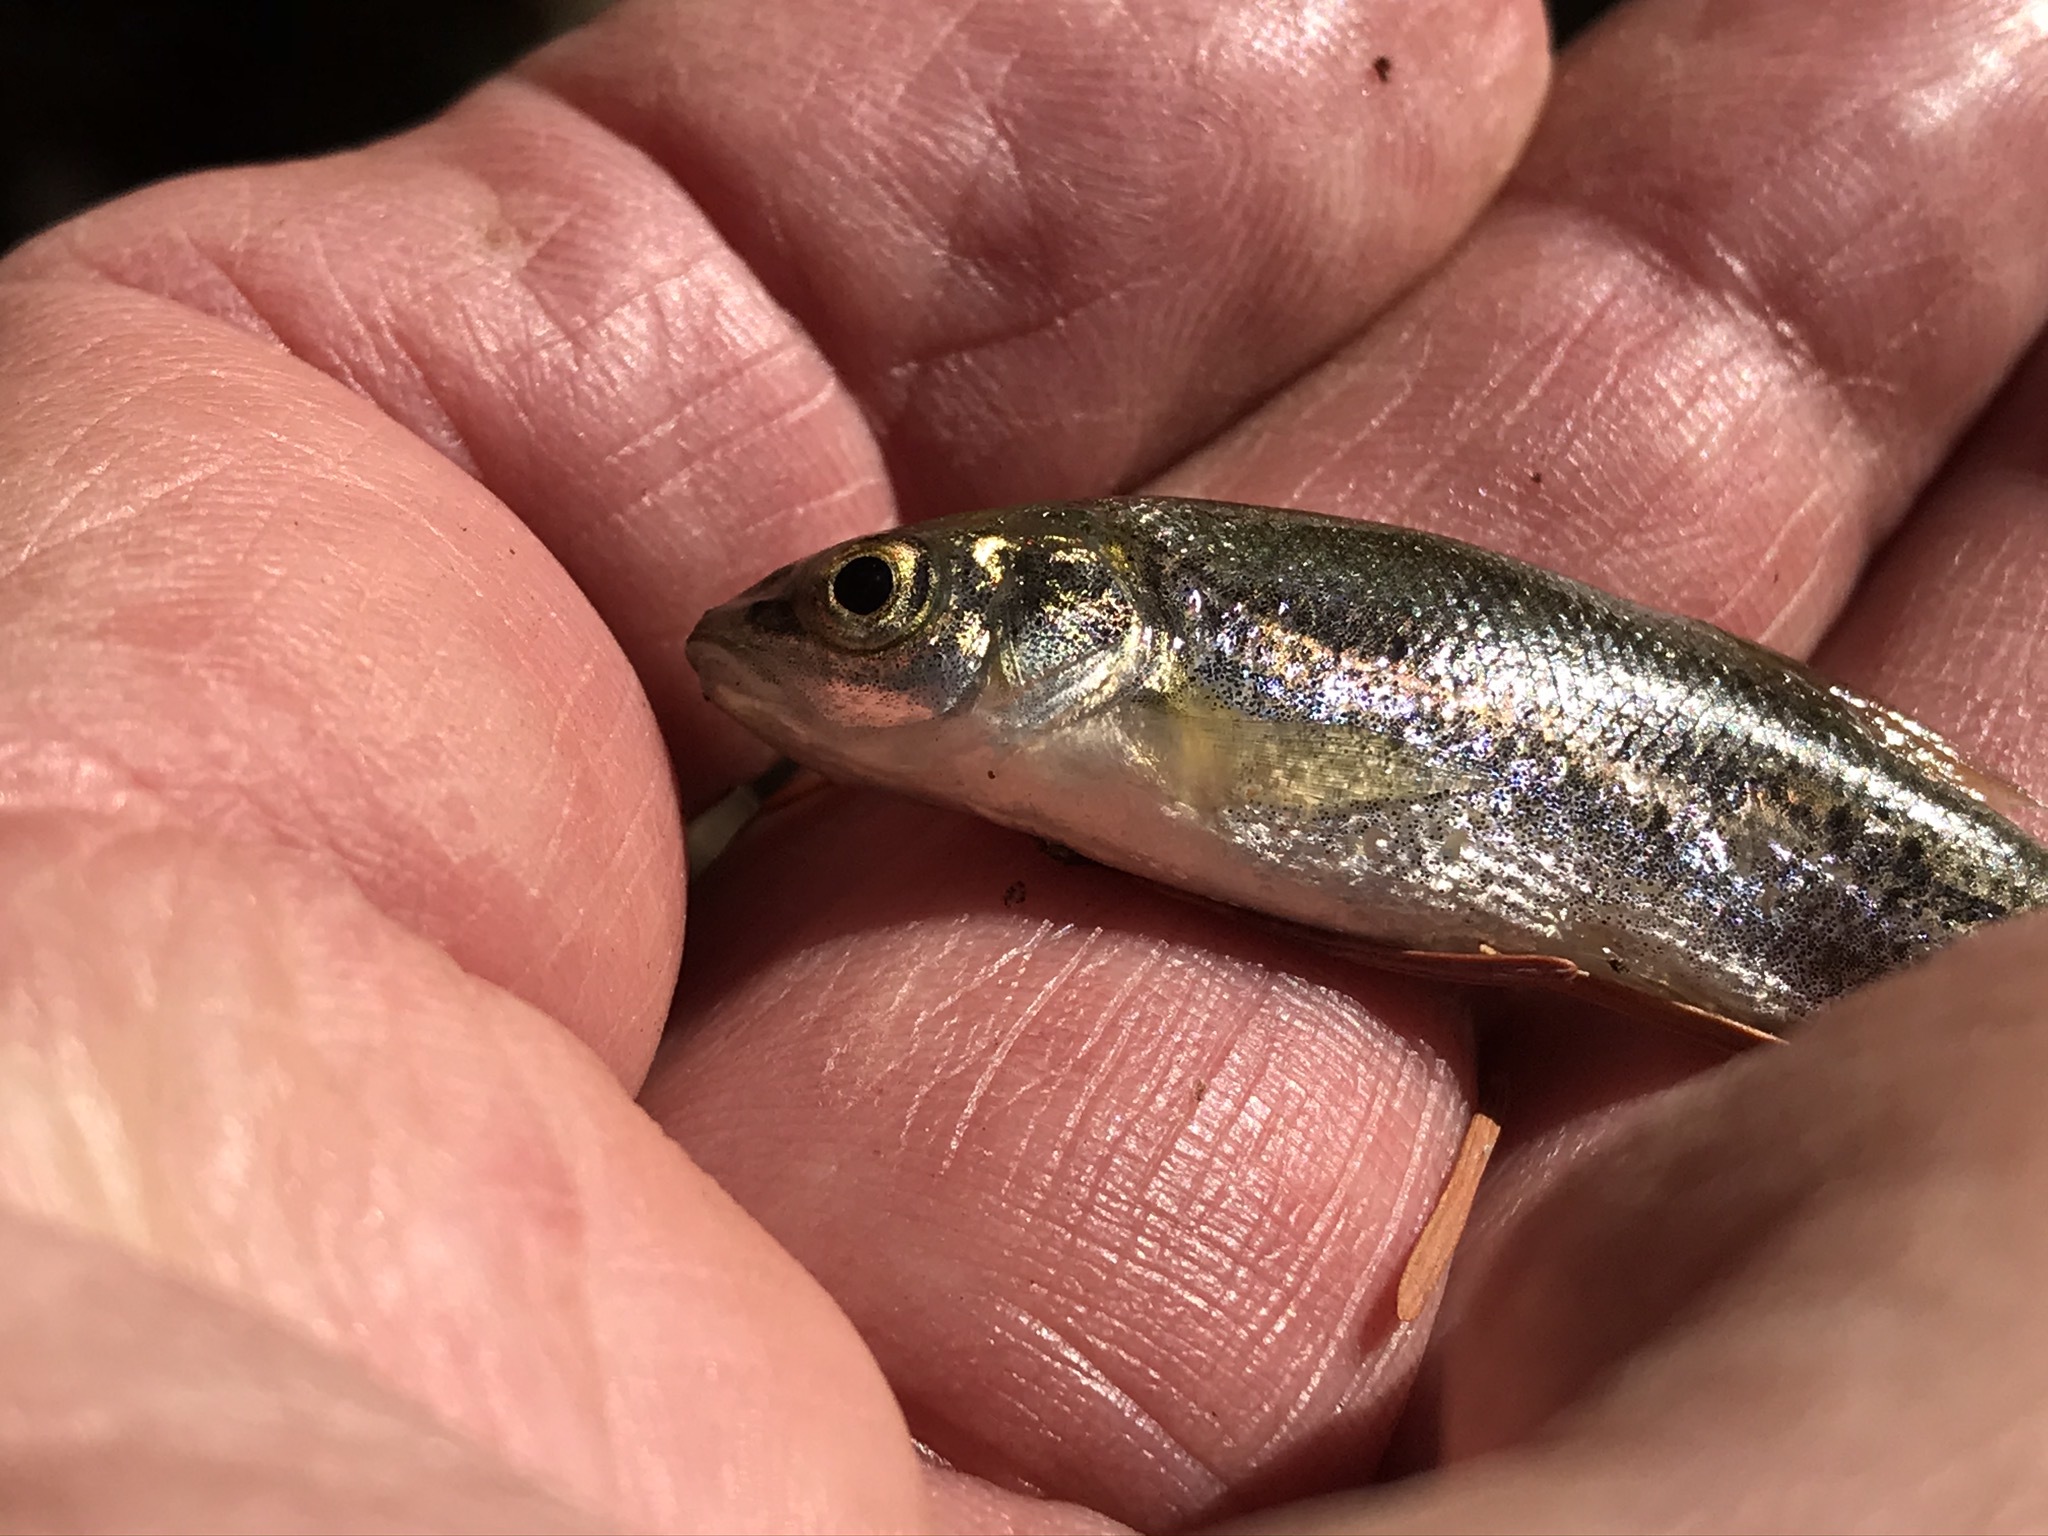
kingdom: Animalia
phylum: Chordata
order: Cypriniformes
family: Cyprinidae
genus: Hesperoleucus
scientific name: Hesperoleucus symmetricus
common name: California roach
